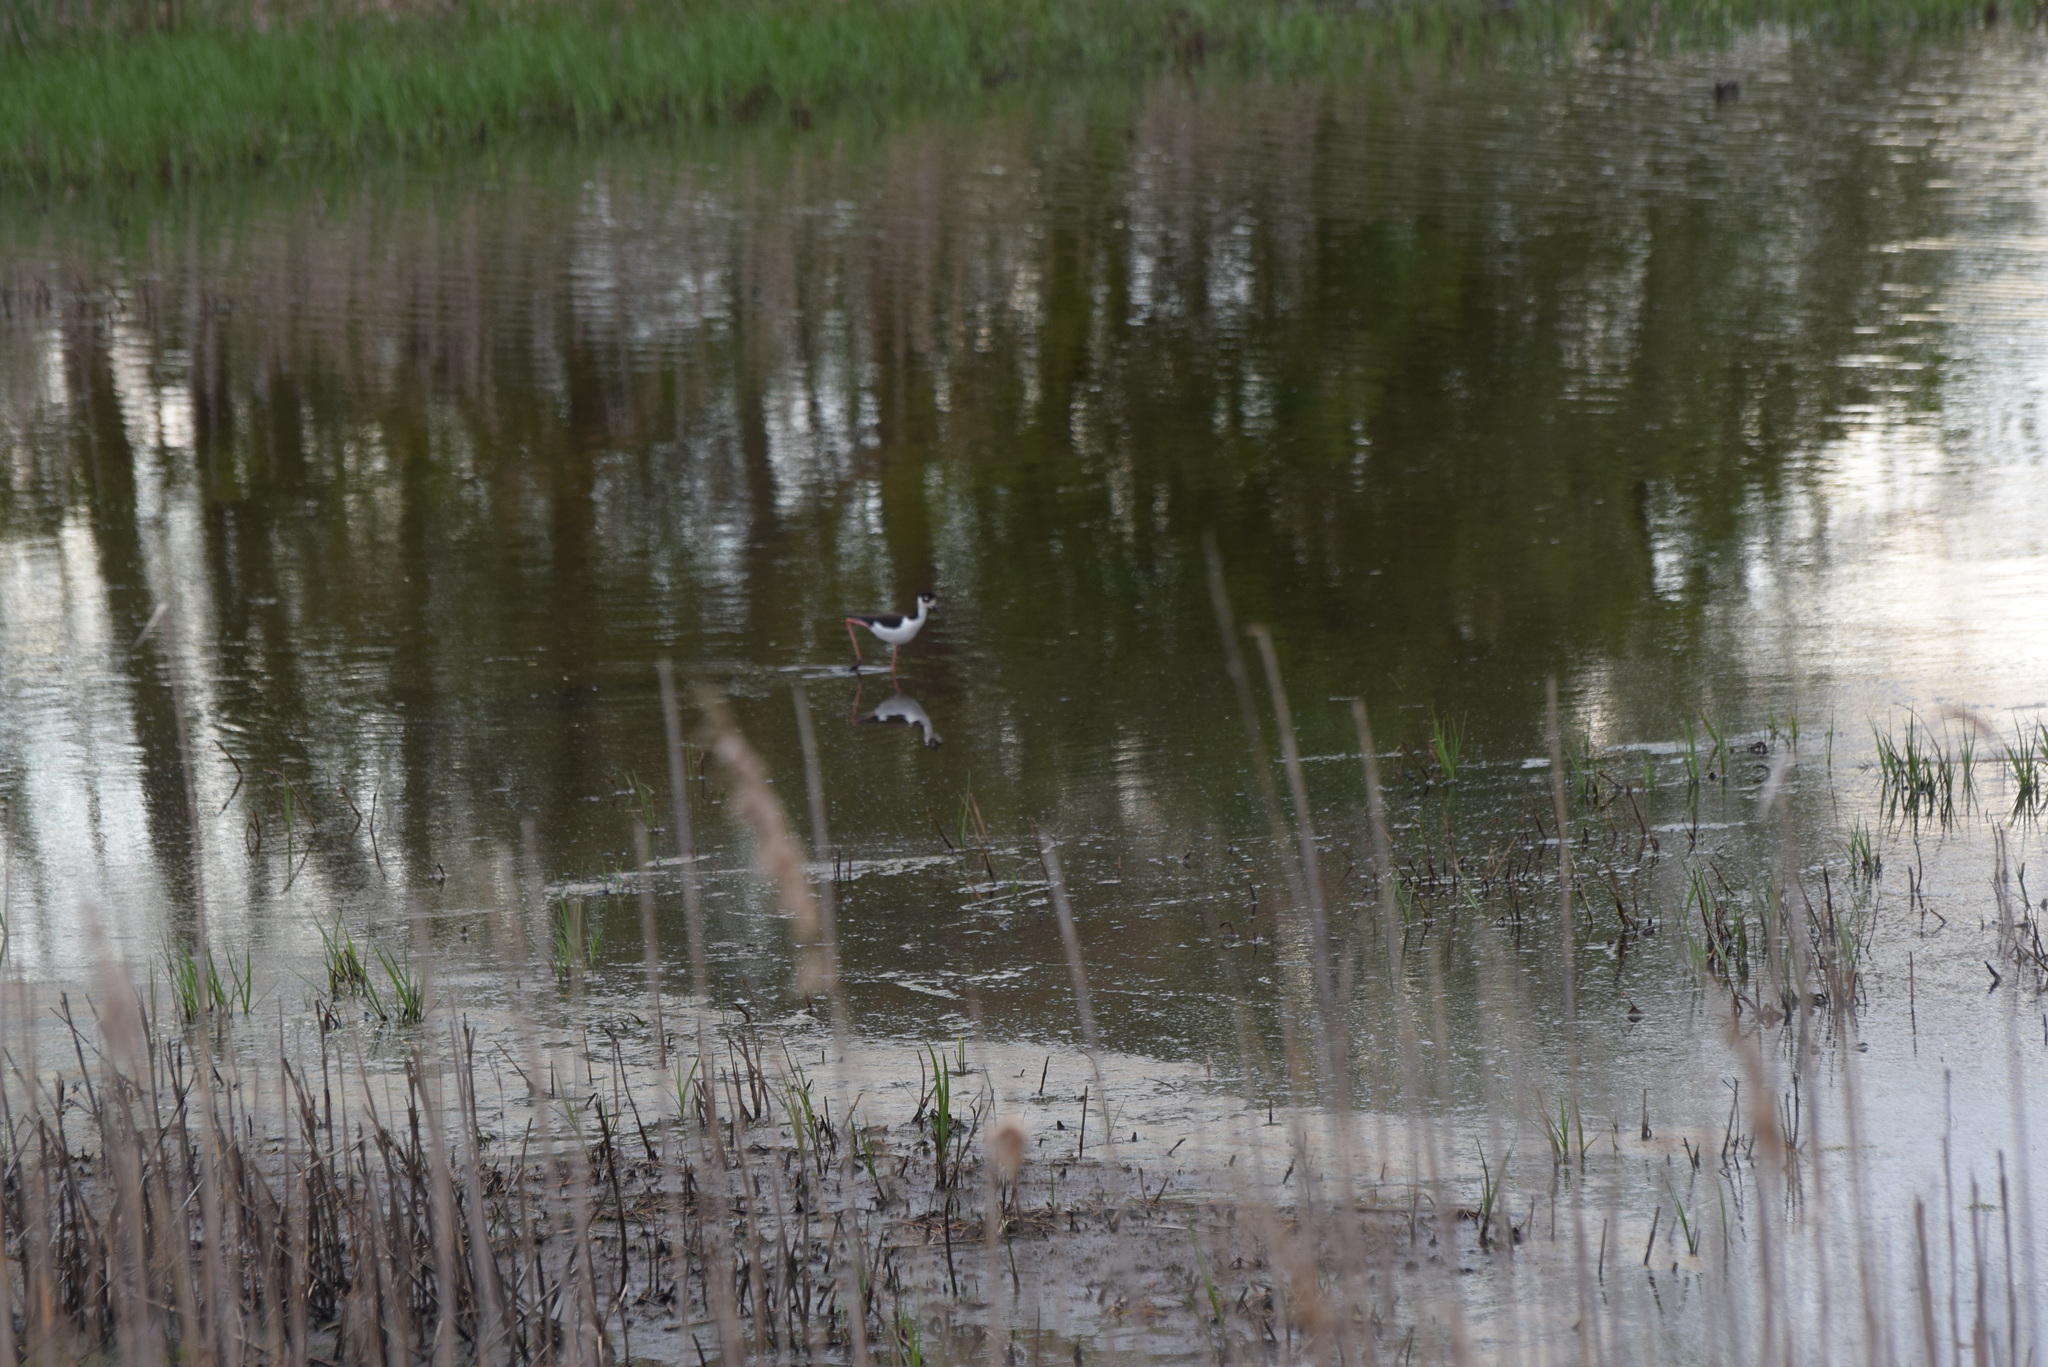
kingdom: Animalia
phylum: Chordata
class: Aves
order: Charadriiformes
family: Recurvirostridae
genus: Himantopus
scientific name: Himantopus mexicanus
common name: Black-necked stilt
